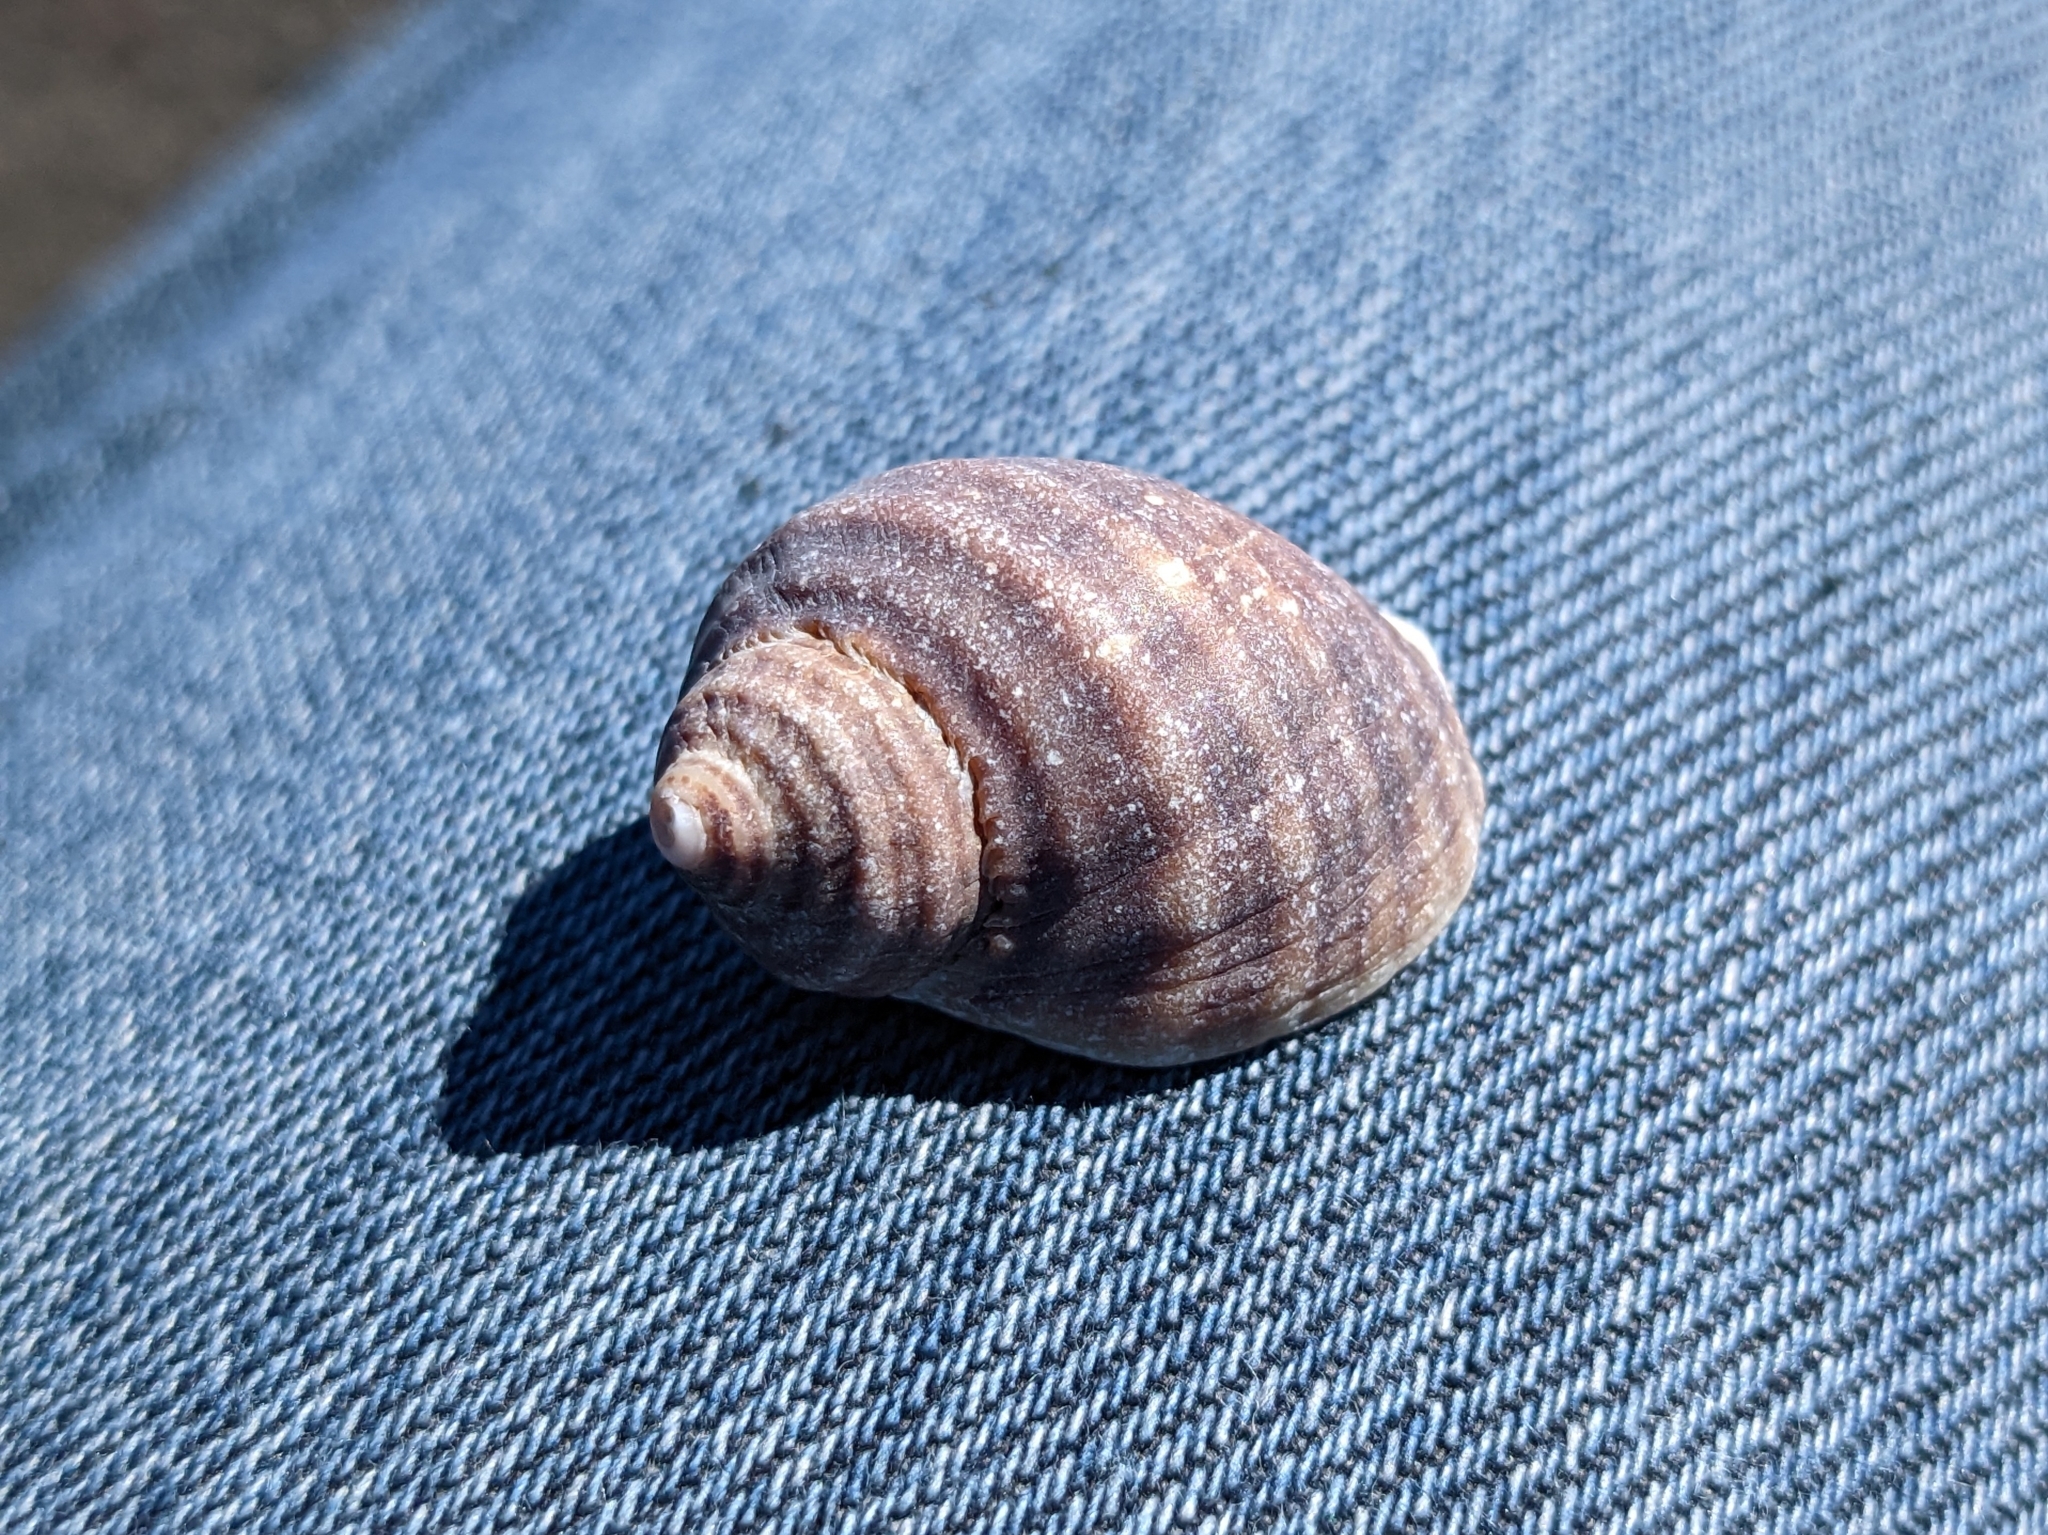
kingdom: Animalia
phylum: Mollusca
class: Gastropoda
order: Neogastropoda
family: Muricidae
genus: Nucella
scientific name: Nucella lapillus
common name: Dog whelk
